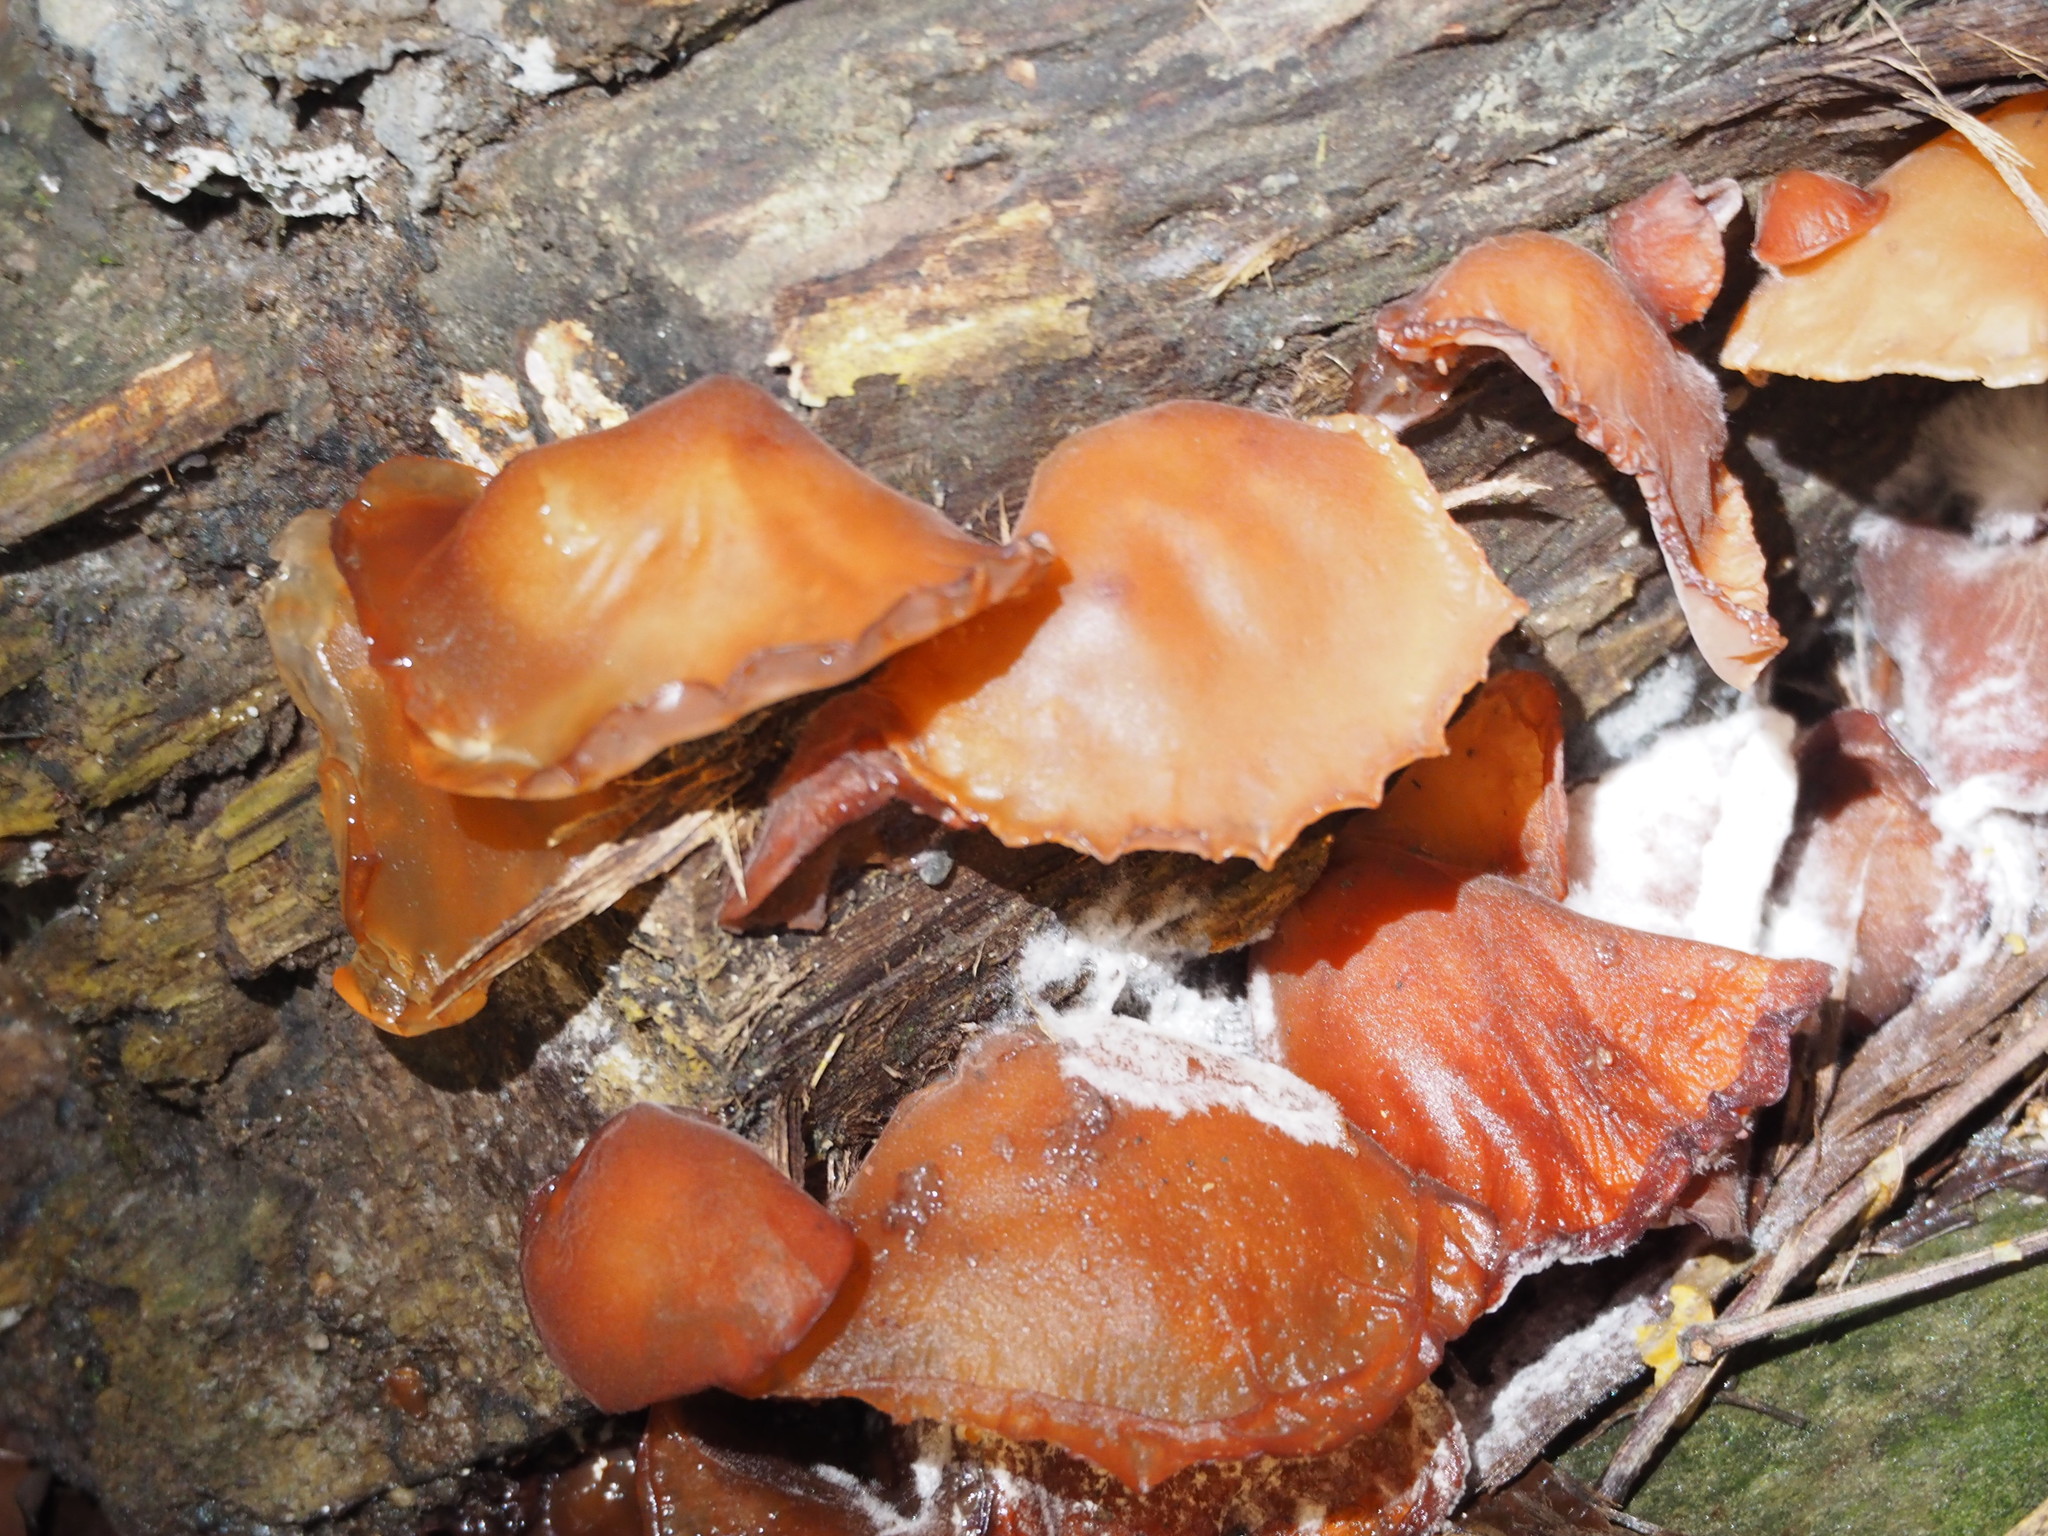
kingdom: Fungi
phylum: Basidiomycota
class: Agaricomycetes
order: Auriculariales
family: Auriculariaceae
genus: Auricularia
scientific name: Auricularia heimuer
